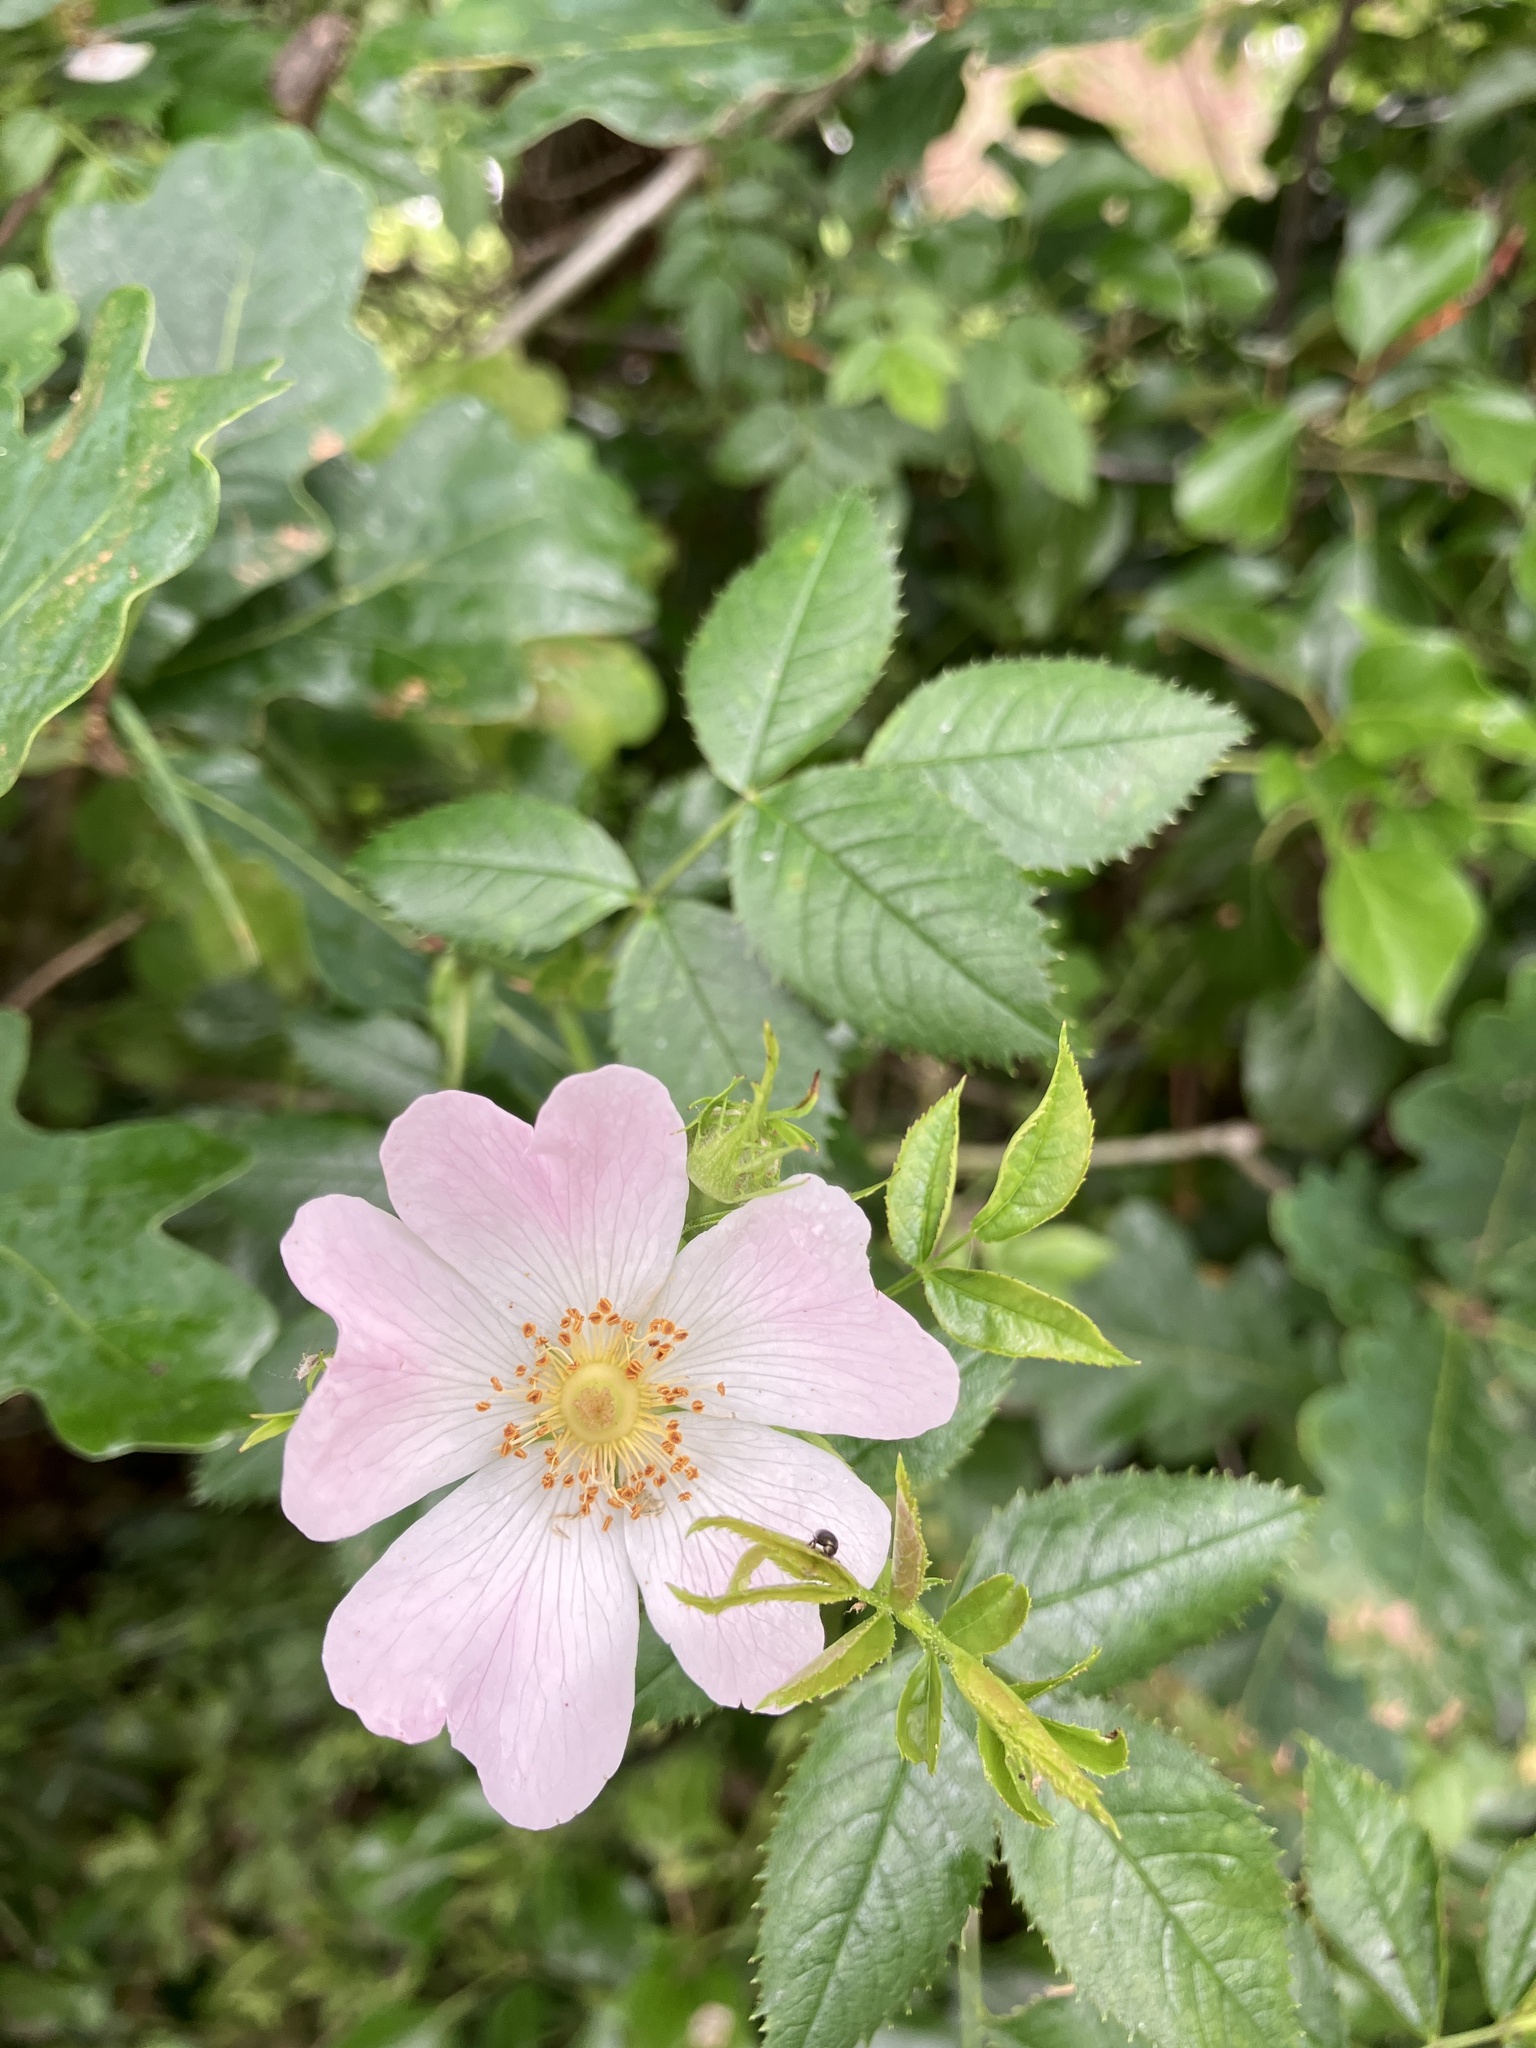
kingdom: Plantae
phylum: Tracheophyta
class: Magnoliopsida
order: Rosales
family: Rosaceae
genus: Rosa
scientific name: Rosa canina
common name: Dog rose
